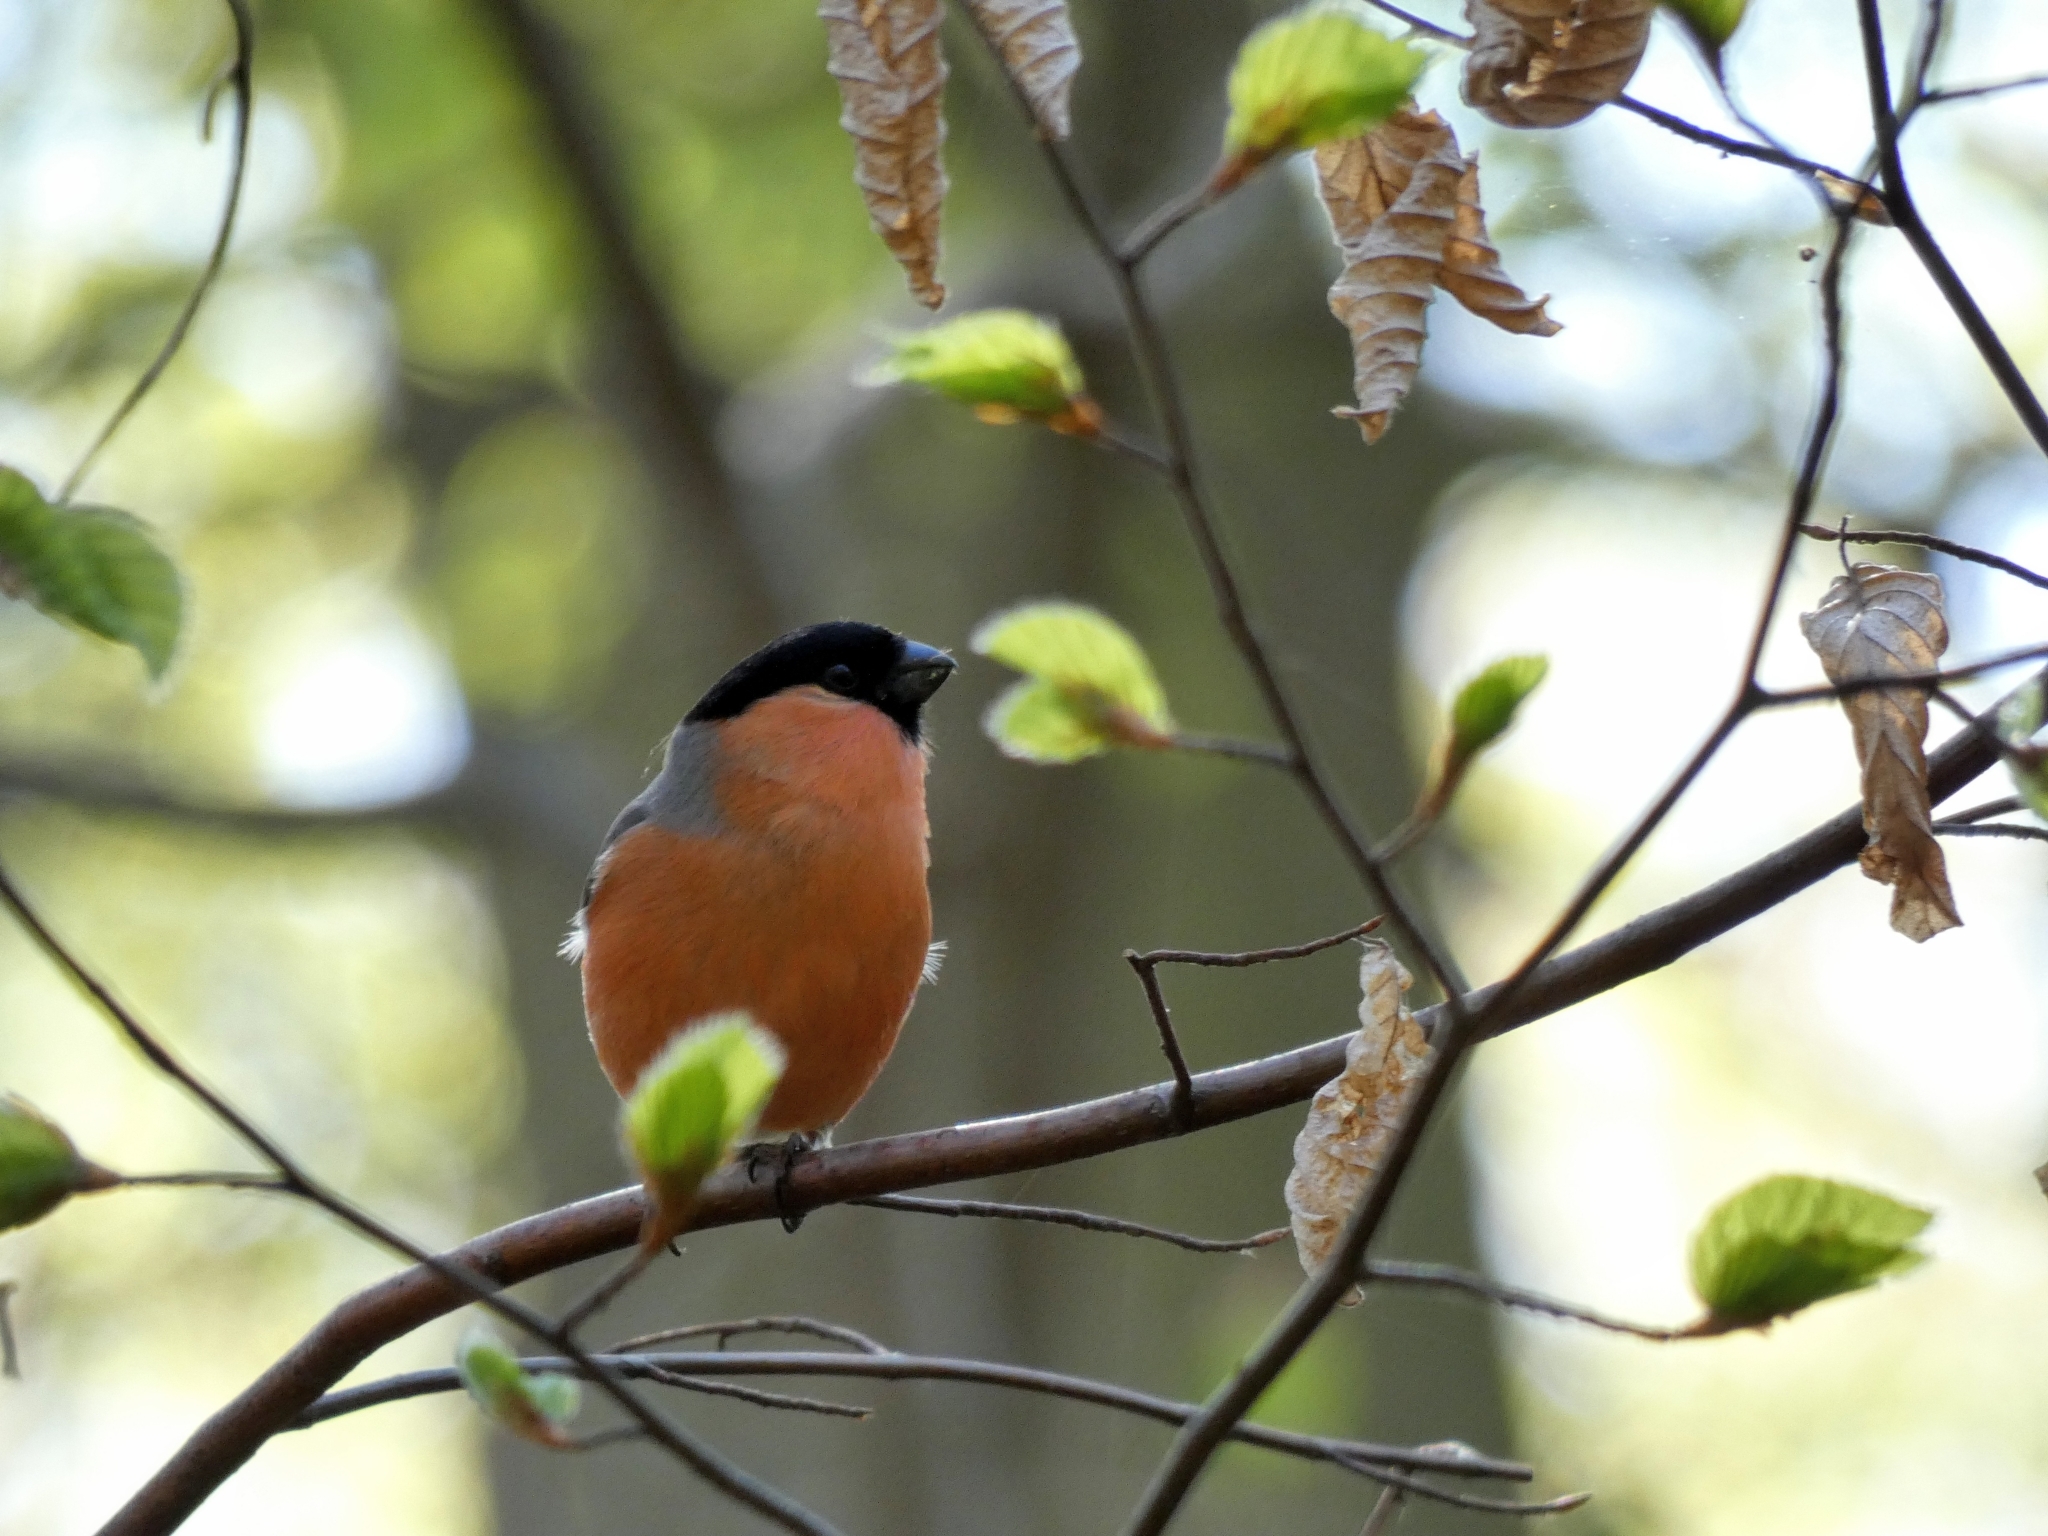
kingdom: Animalia
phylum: Chordata
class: Aves
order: Passeriformes
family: Fringillidae
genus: Pyrrhula
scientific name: Pyrrhula pyrrhula
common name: Eurasian bullfinch
